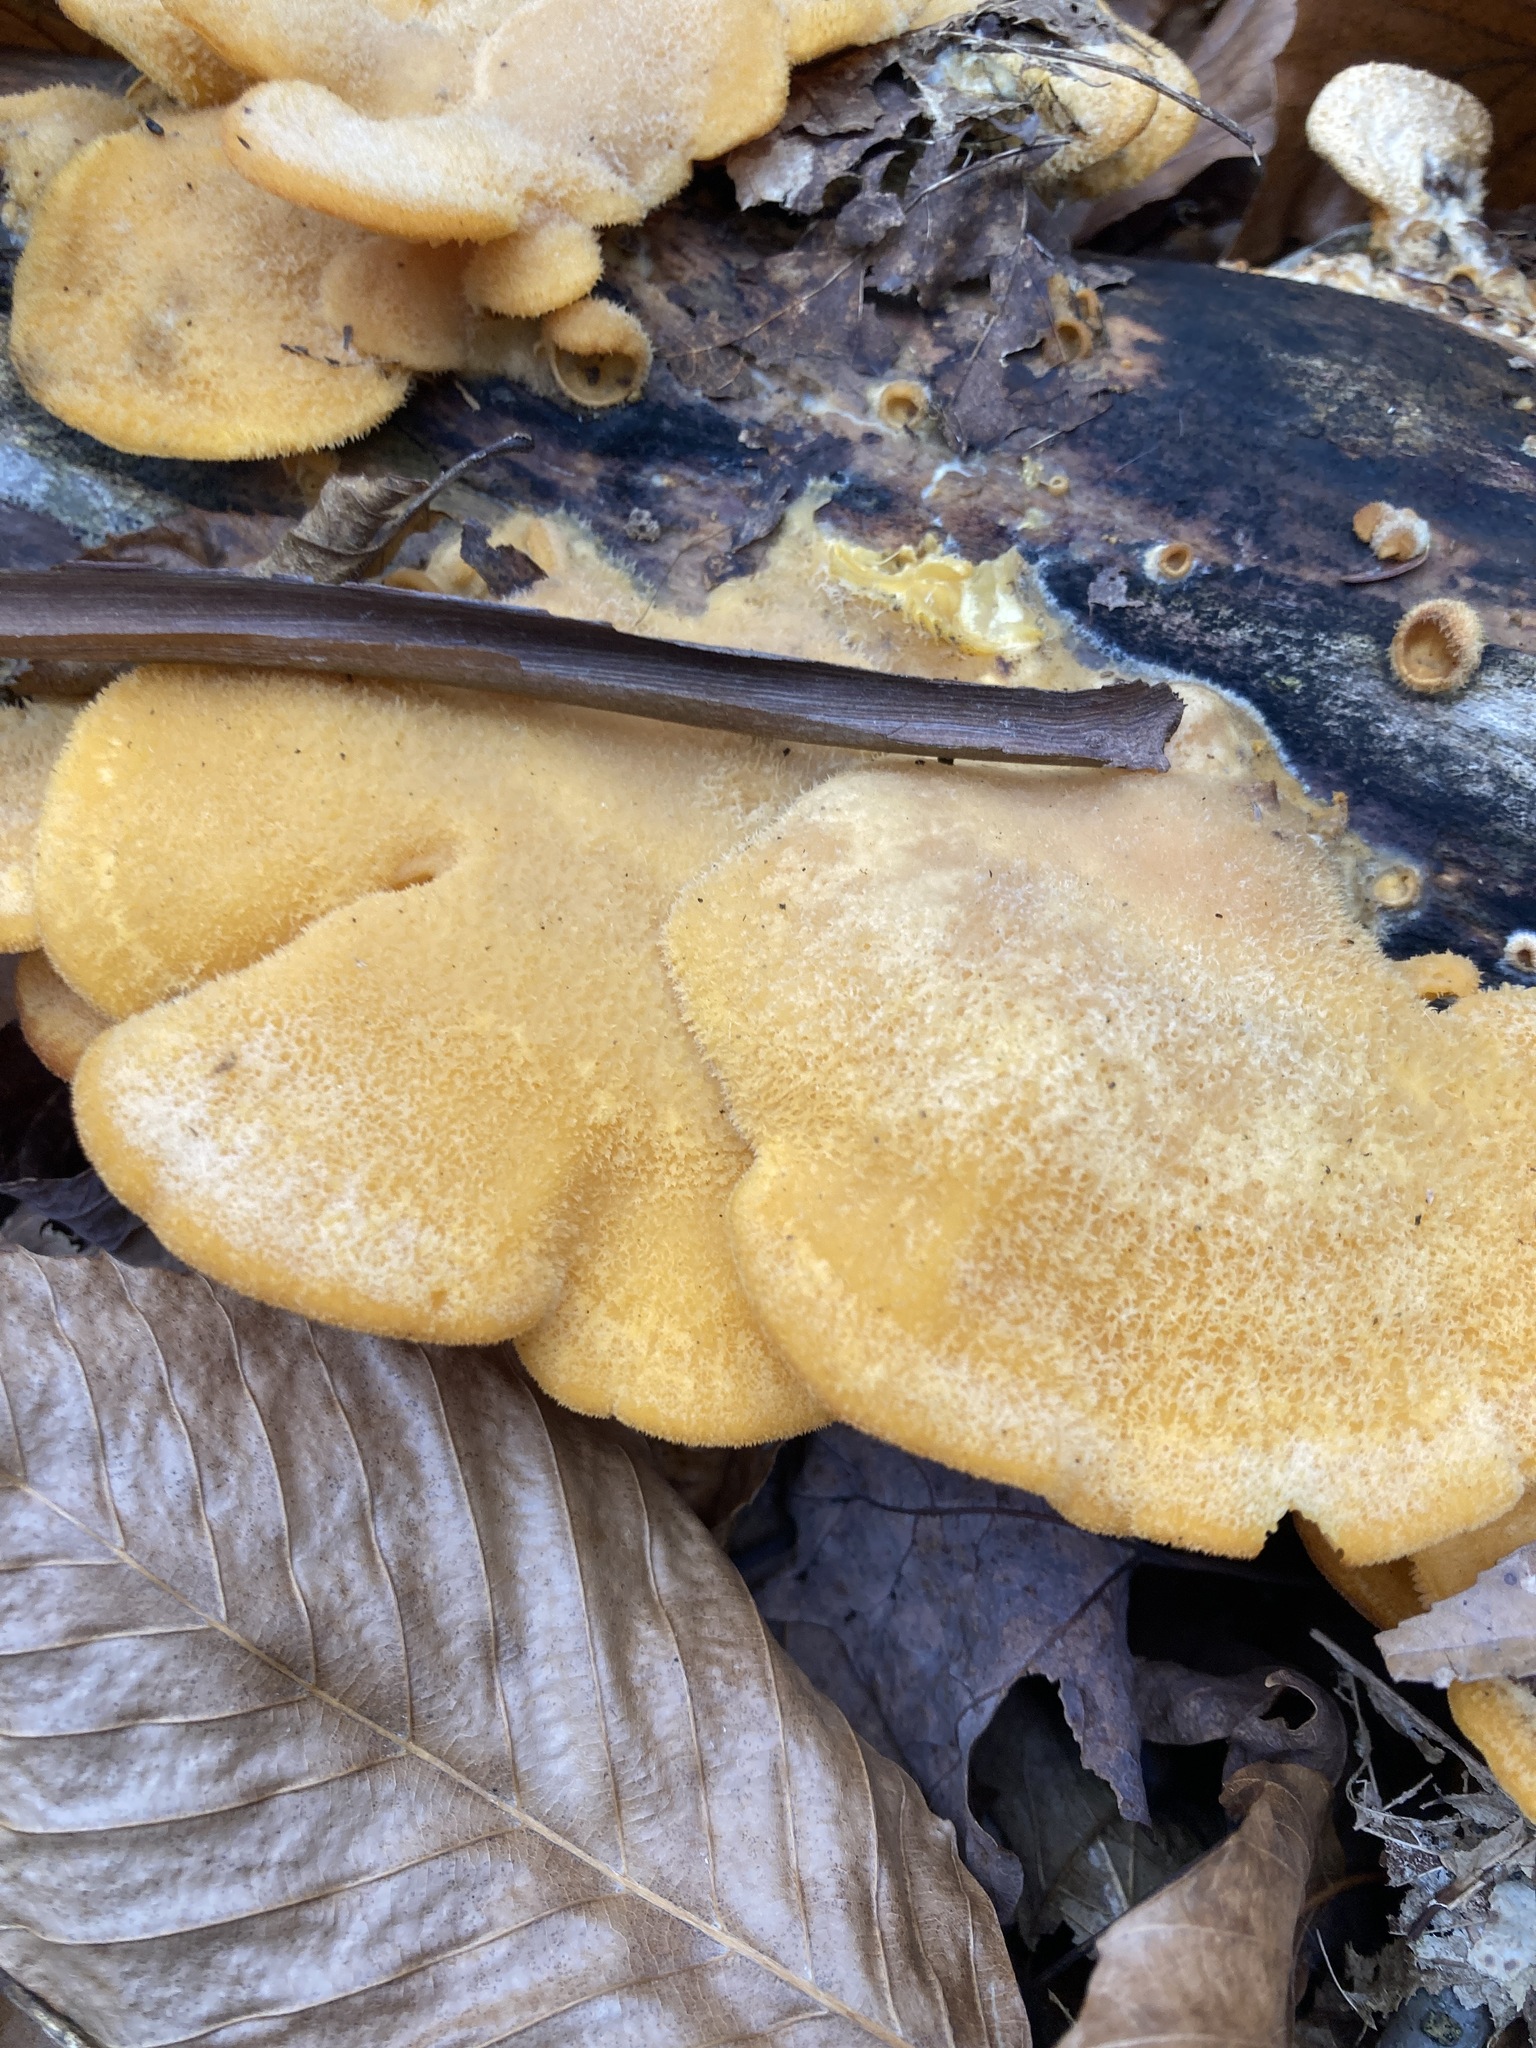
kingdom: Fungi
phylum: Basidiomycota
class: Agaricomycetes
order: Agaricales
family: Phyllotopsidaceae
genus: Phyllotopsis
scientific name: Phyllotopsis nidulans
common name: Orange mock oyster
